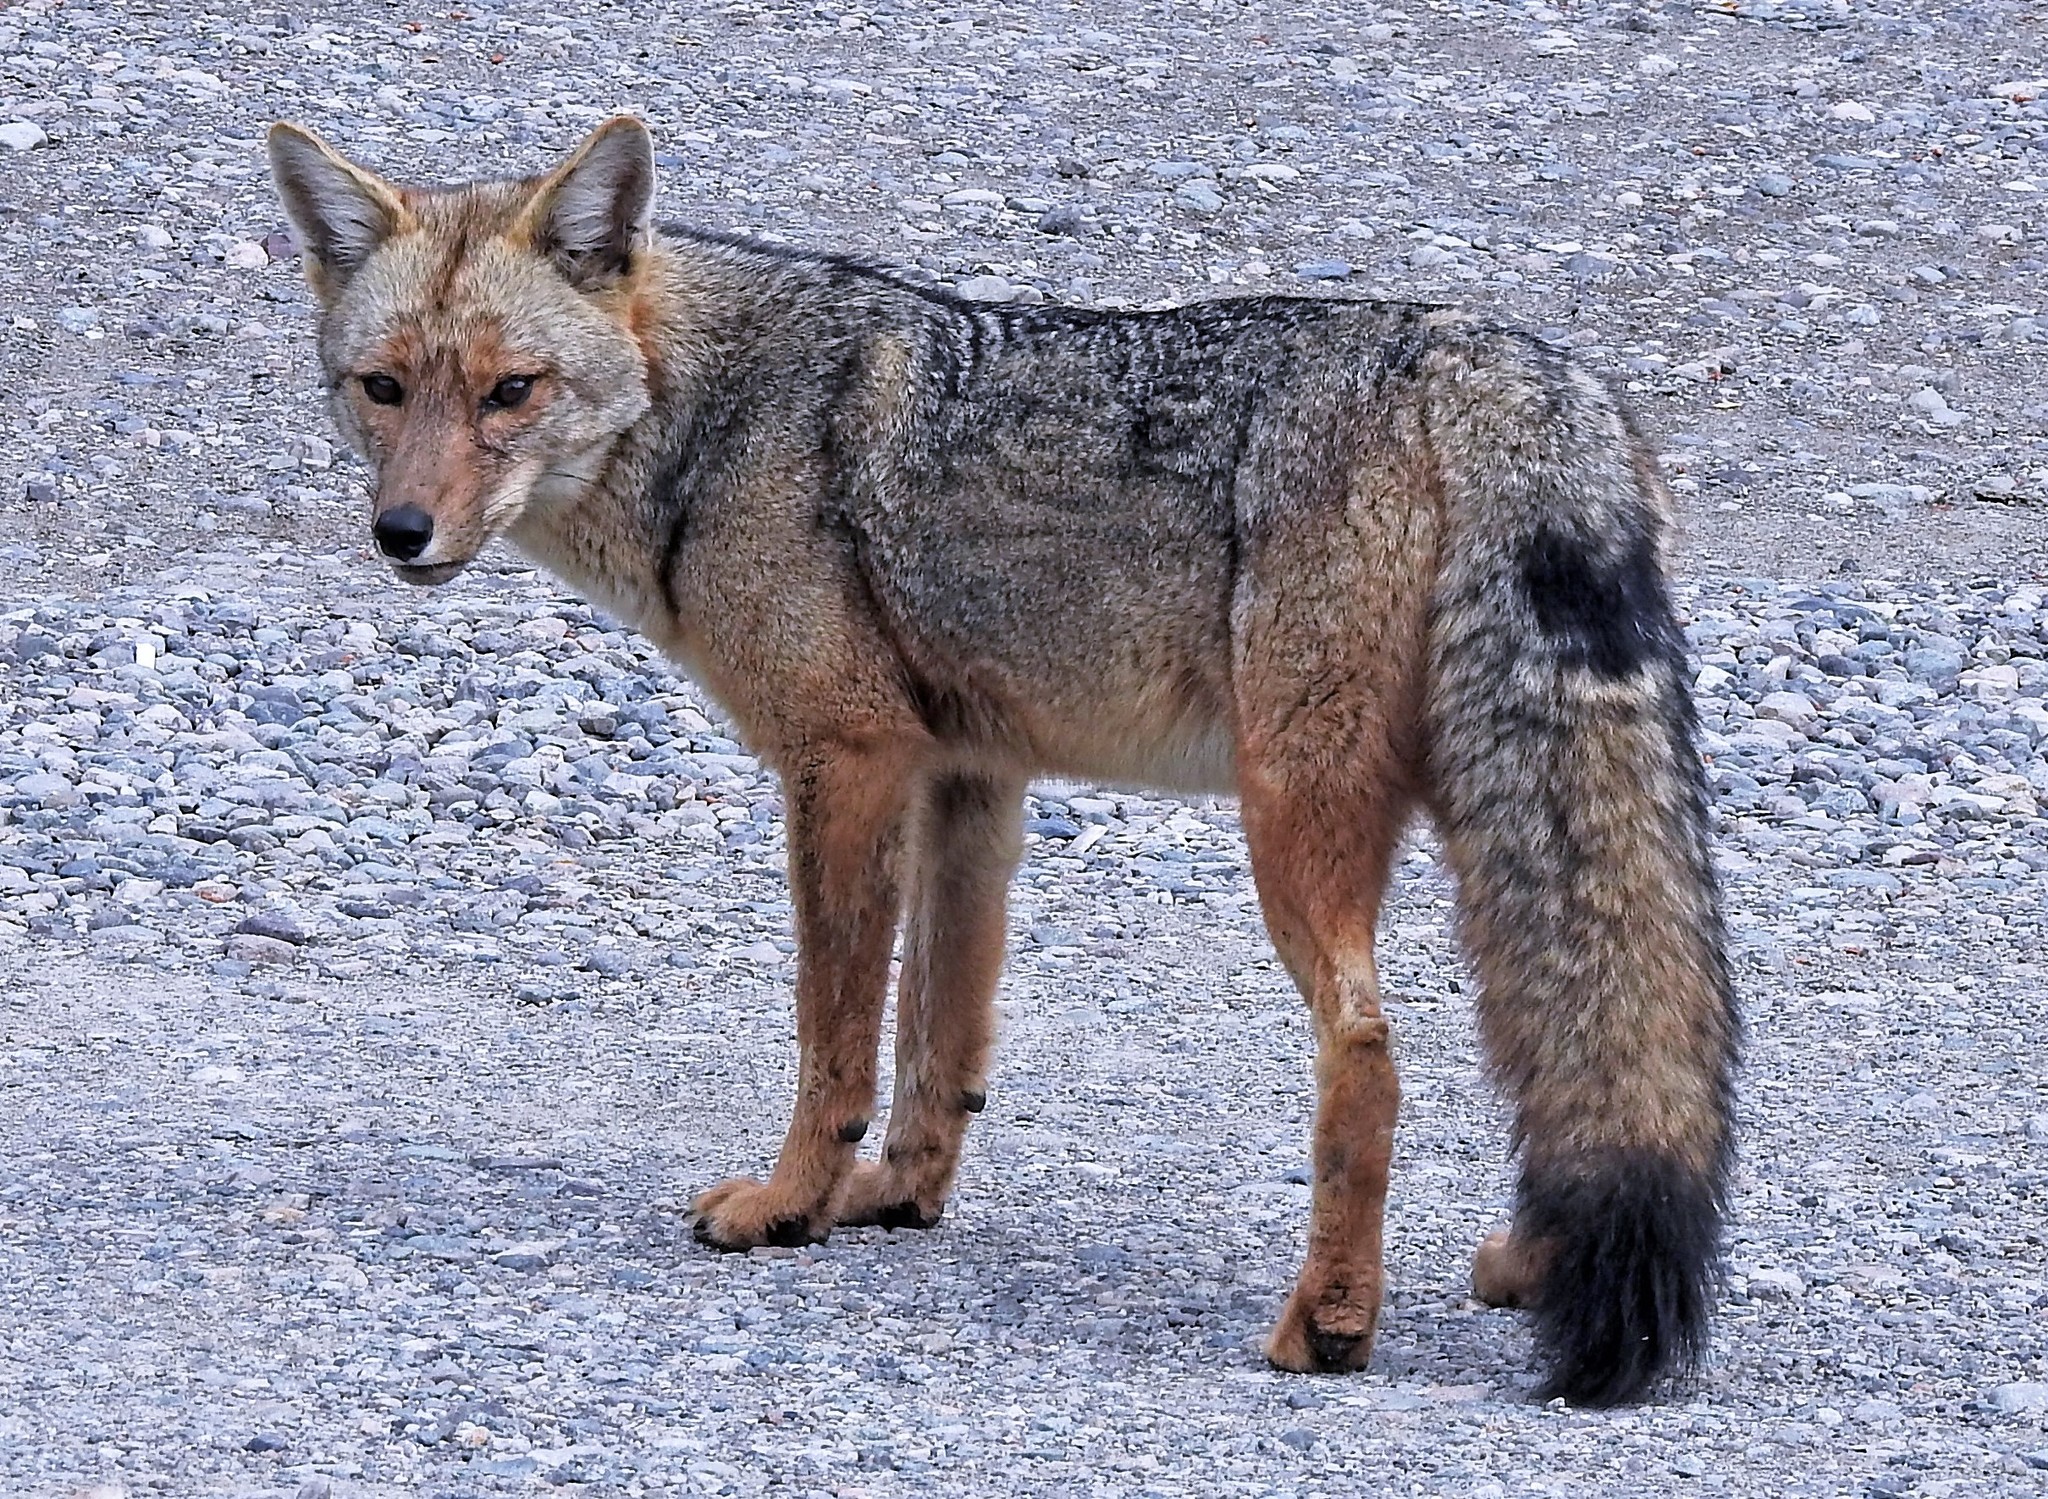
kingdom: Animalia
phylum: Chordata
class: Mammalia
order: Carnivora
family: Canidae
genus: Lycalopex
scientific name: Lycalopex culpaeus
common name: Culpeo
